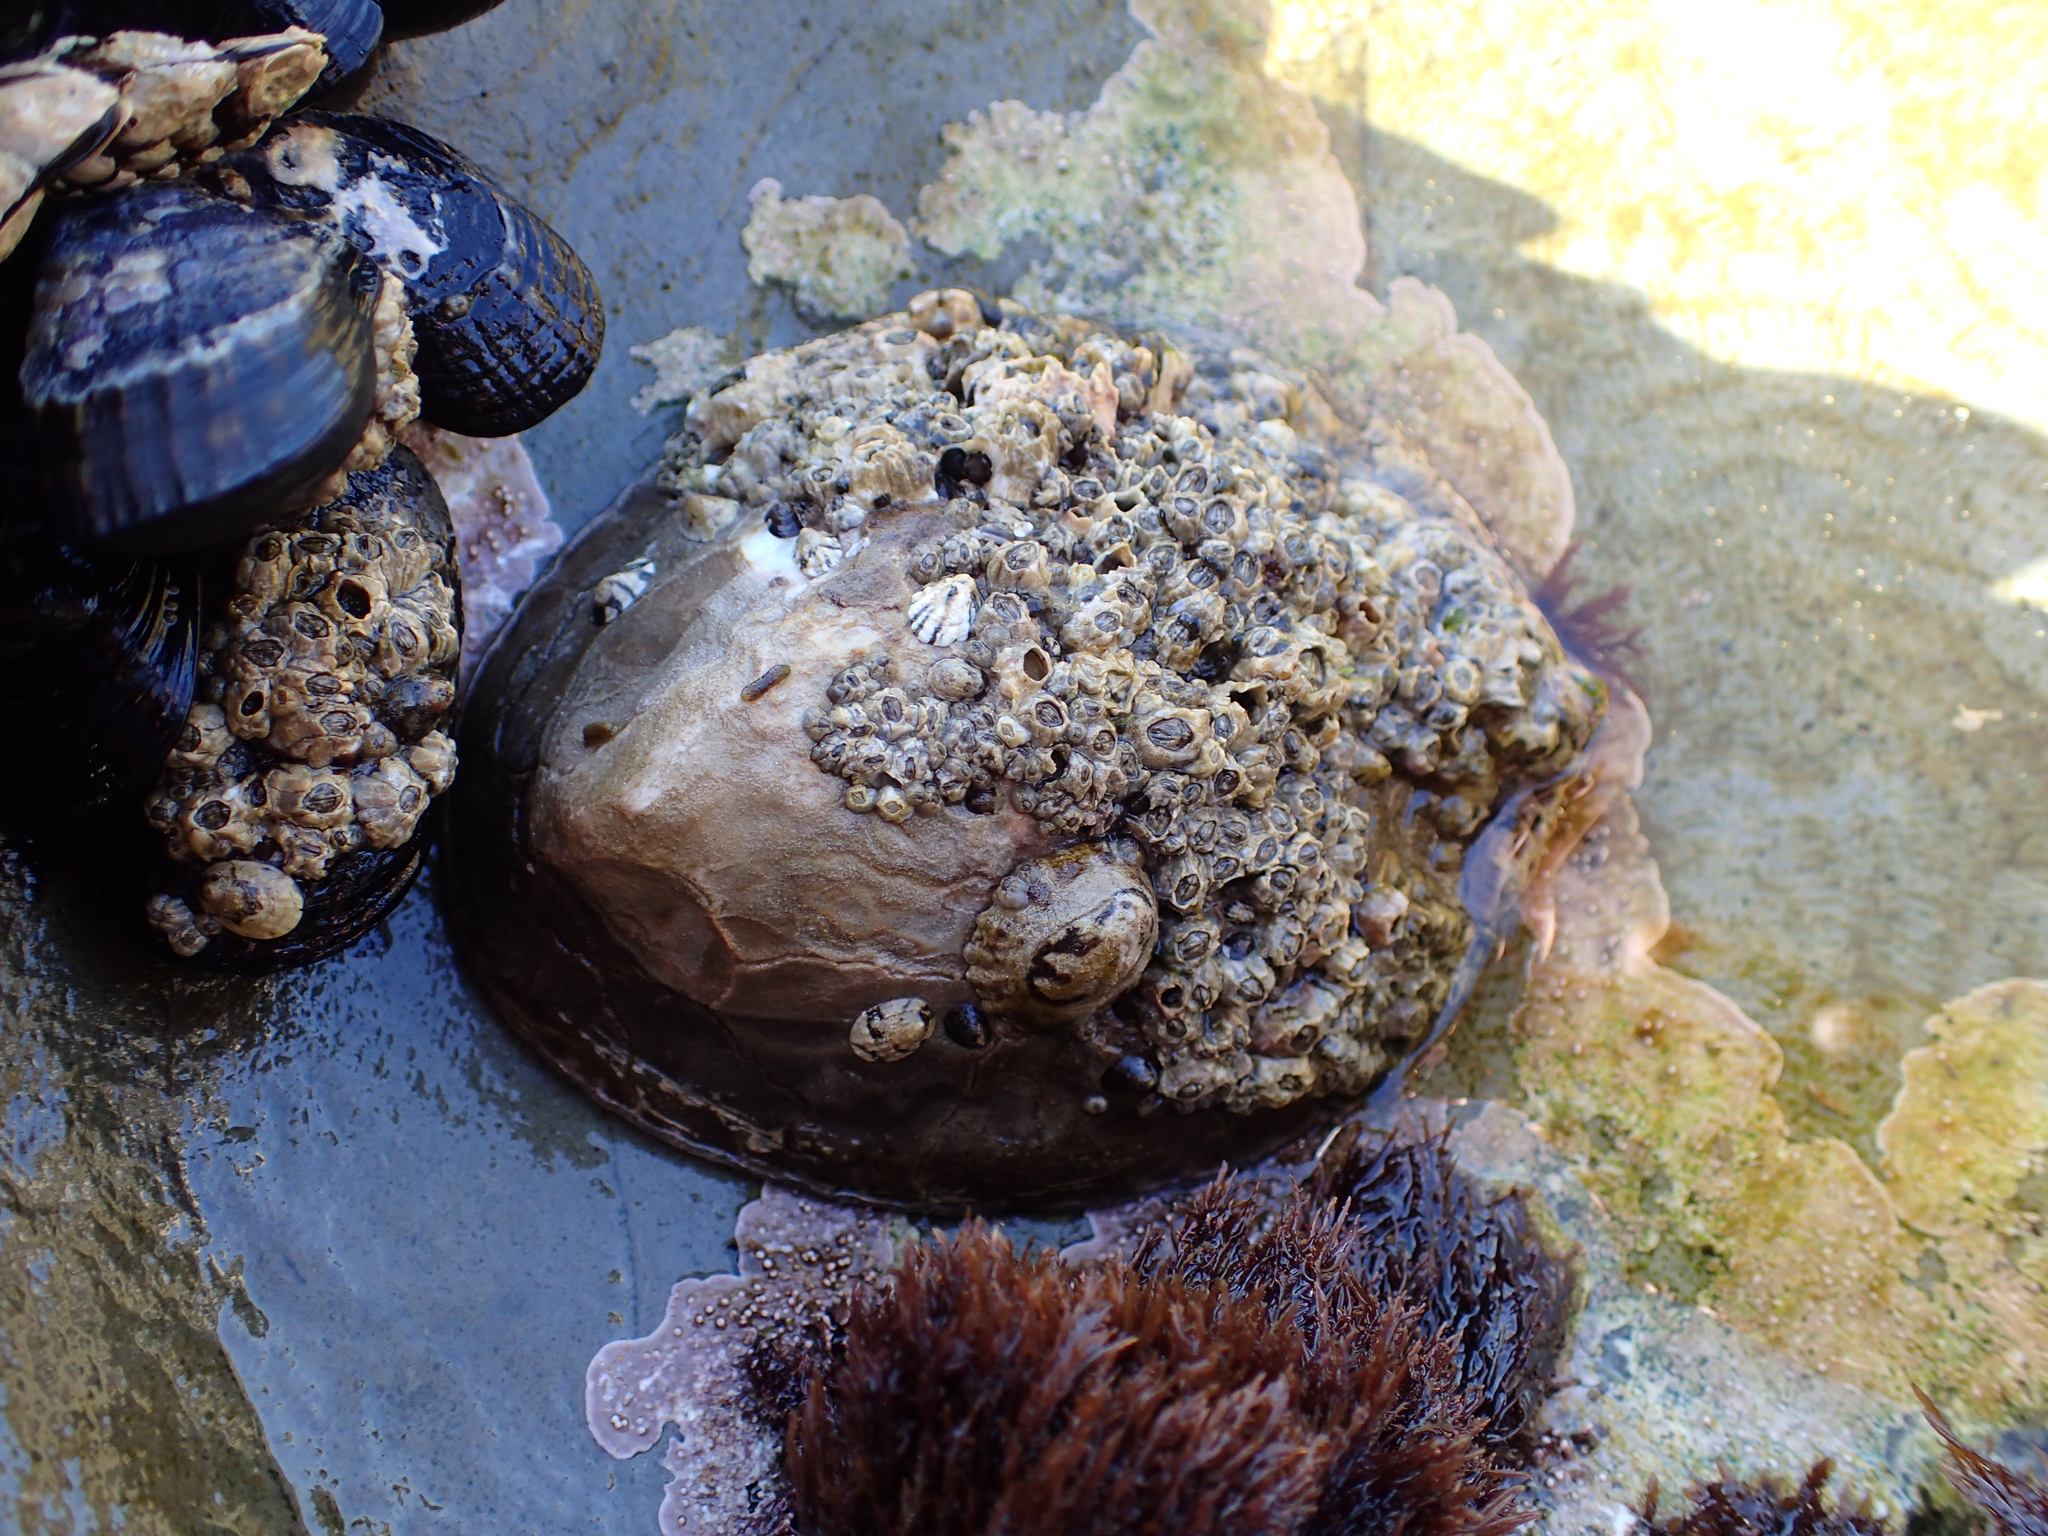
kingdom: Animalia
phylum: Mollusca
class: Gastropoda
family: Lottiidae
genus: Lottia
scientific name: Lottia gigantea
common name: Owl limpet
